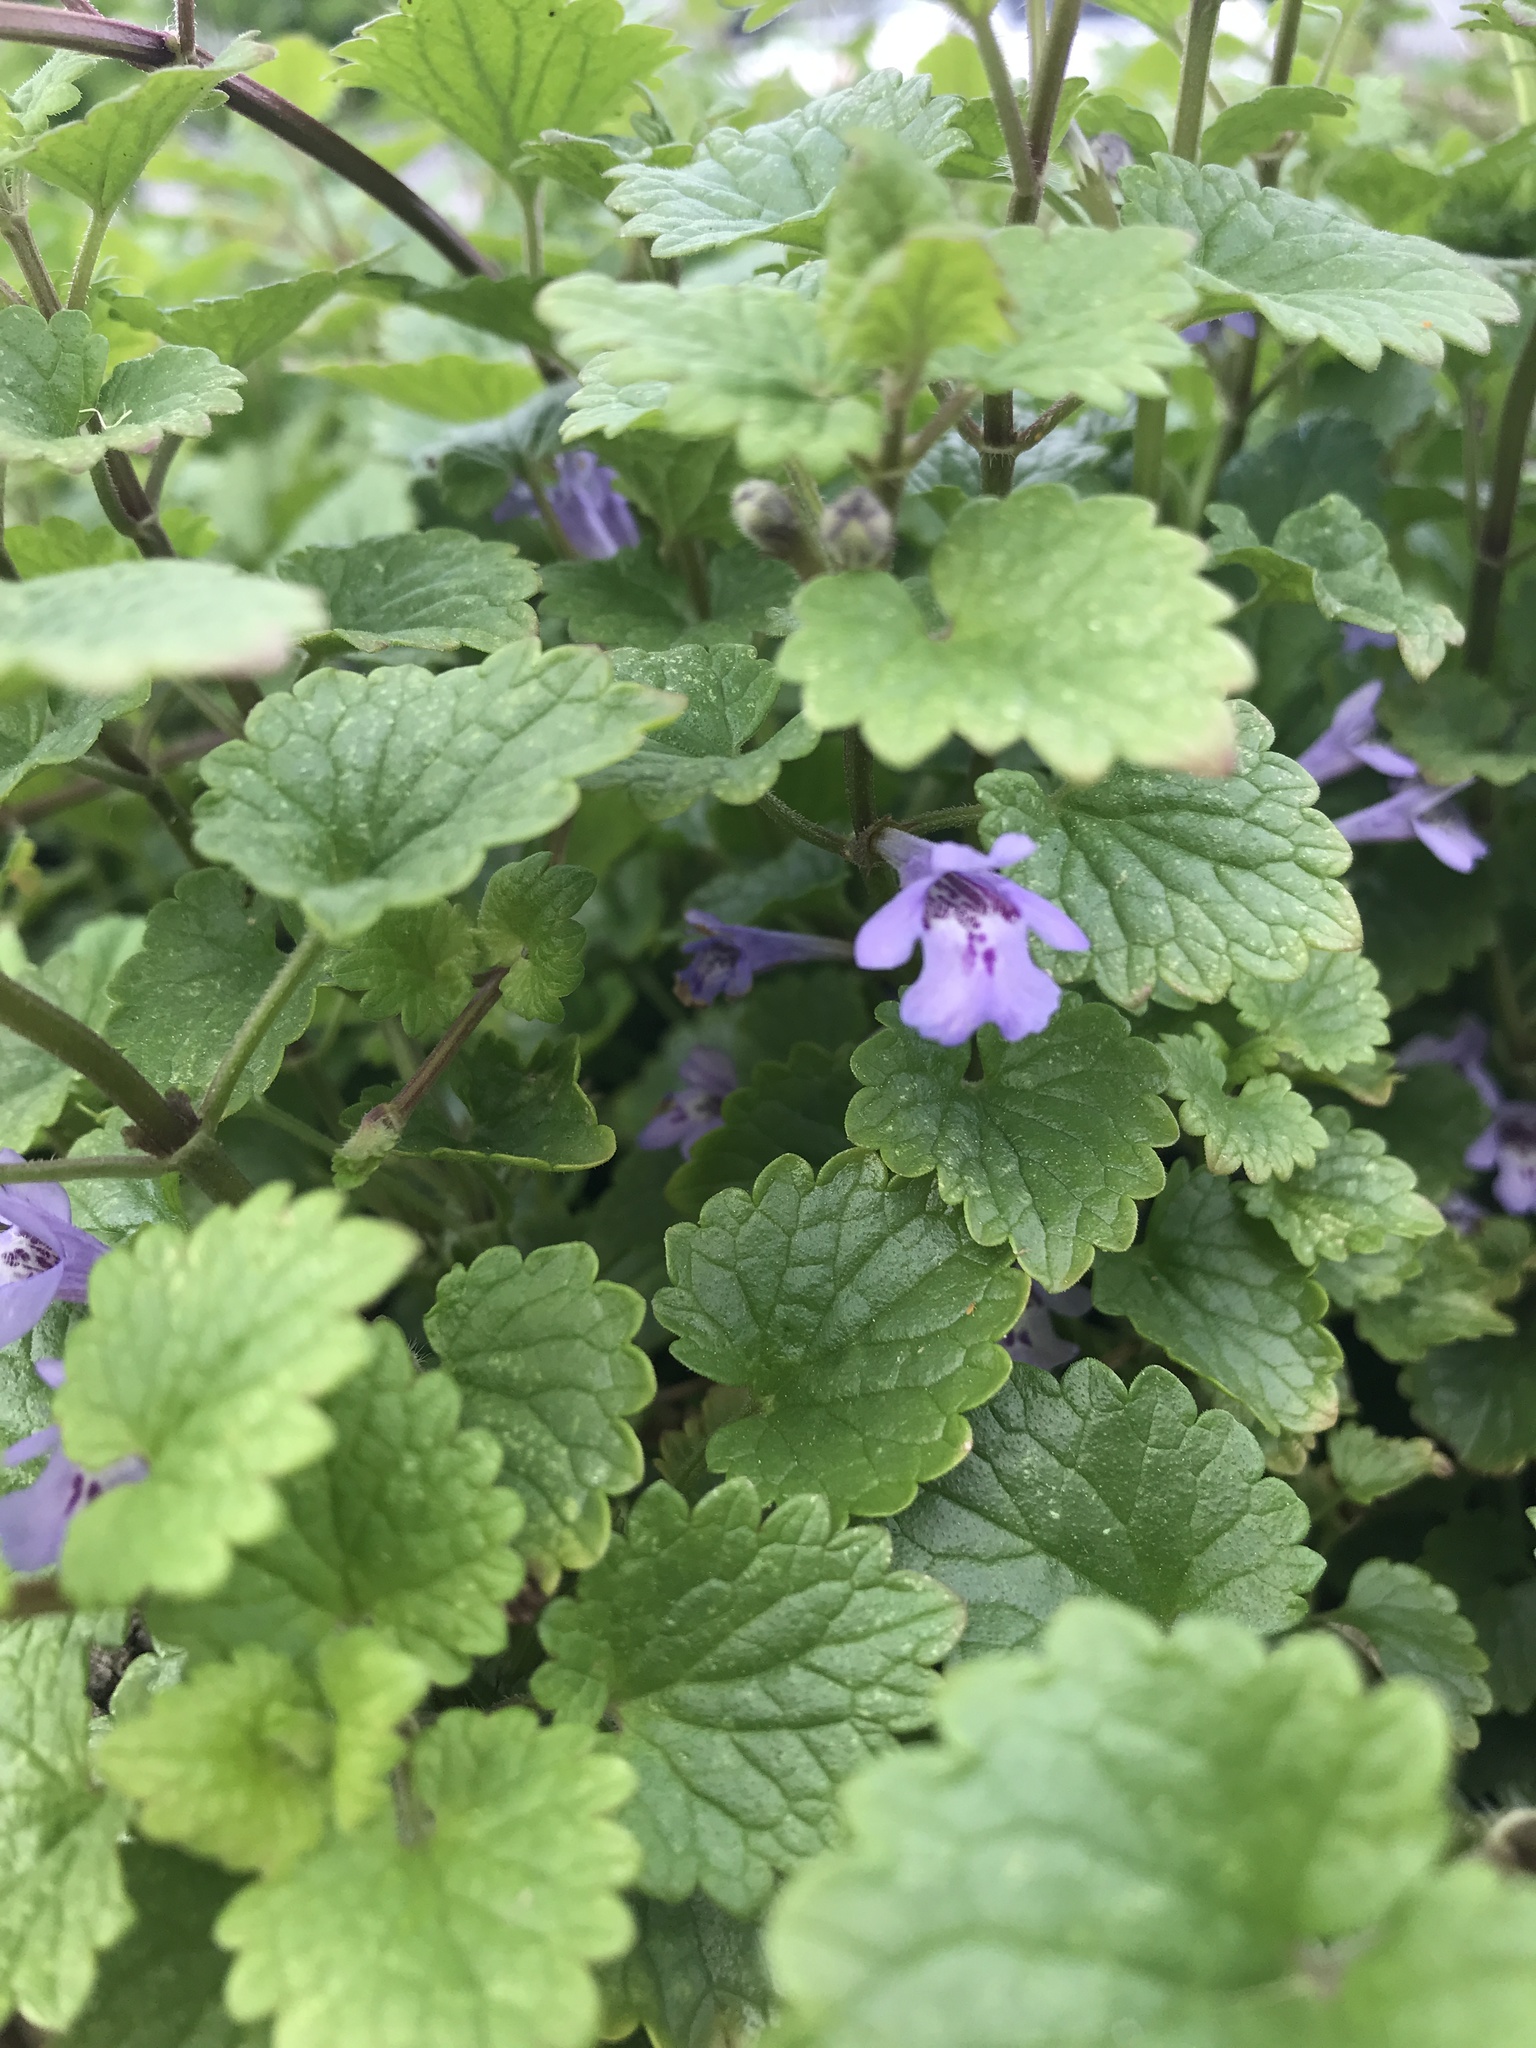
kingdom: Plantae
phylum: Tracheophyta
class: Magnoliopsida
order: Lamiales
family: Lamiaceae
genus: Glechoma
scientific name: Glechoma hederacea
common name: Ground ivy
